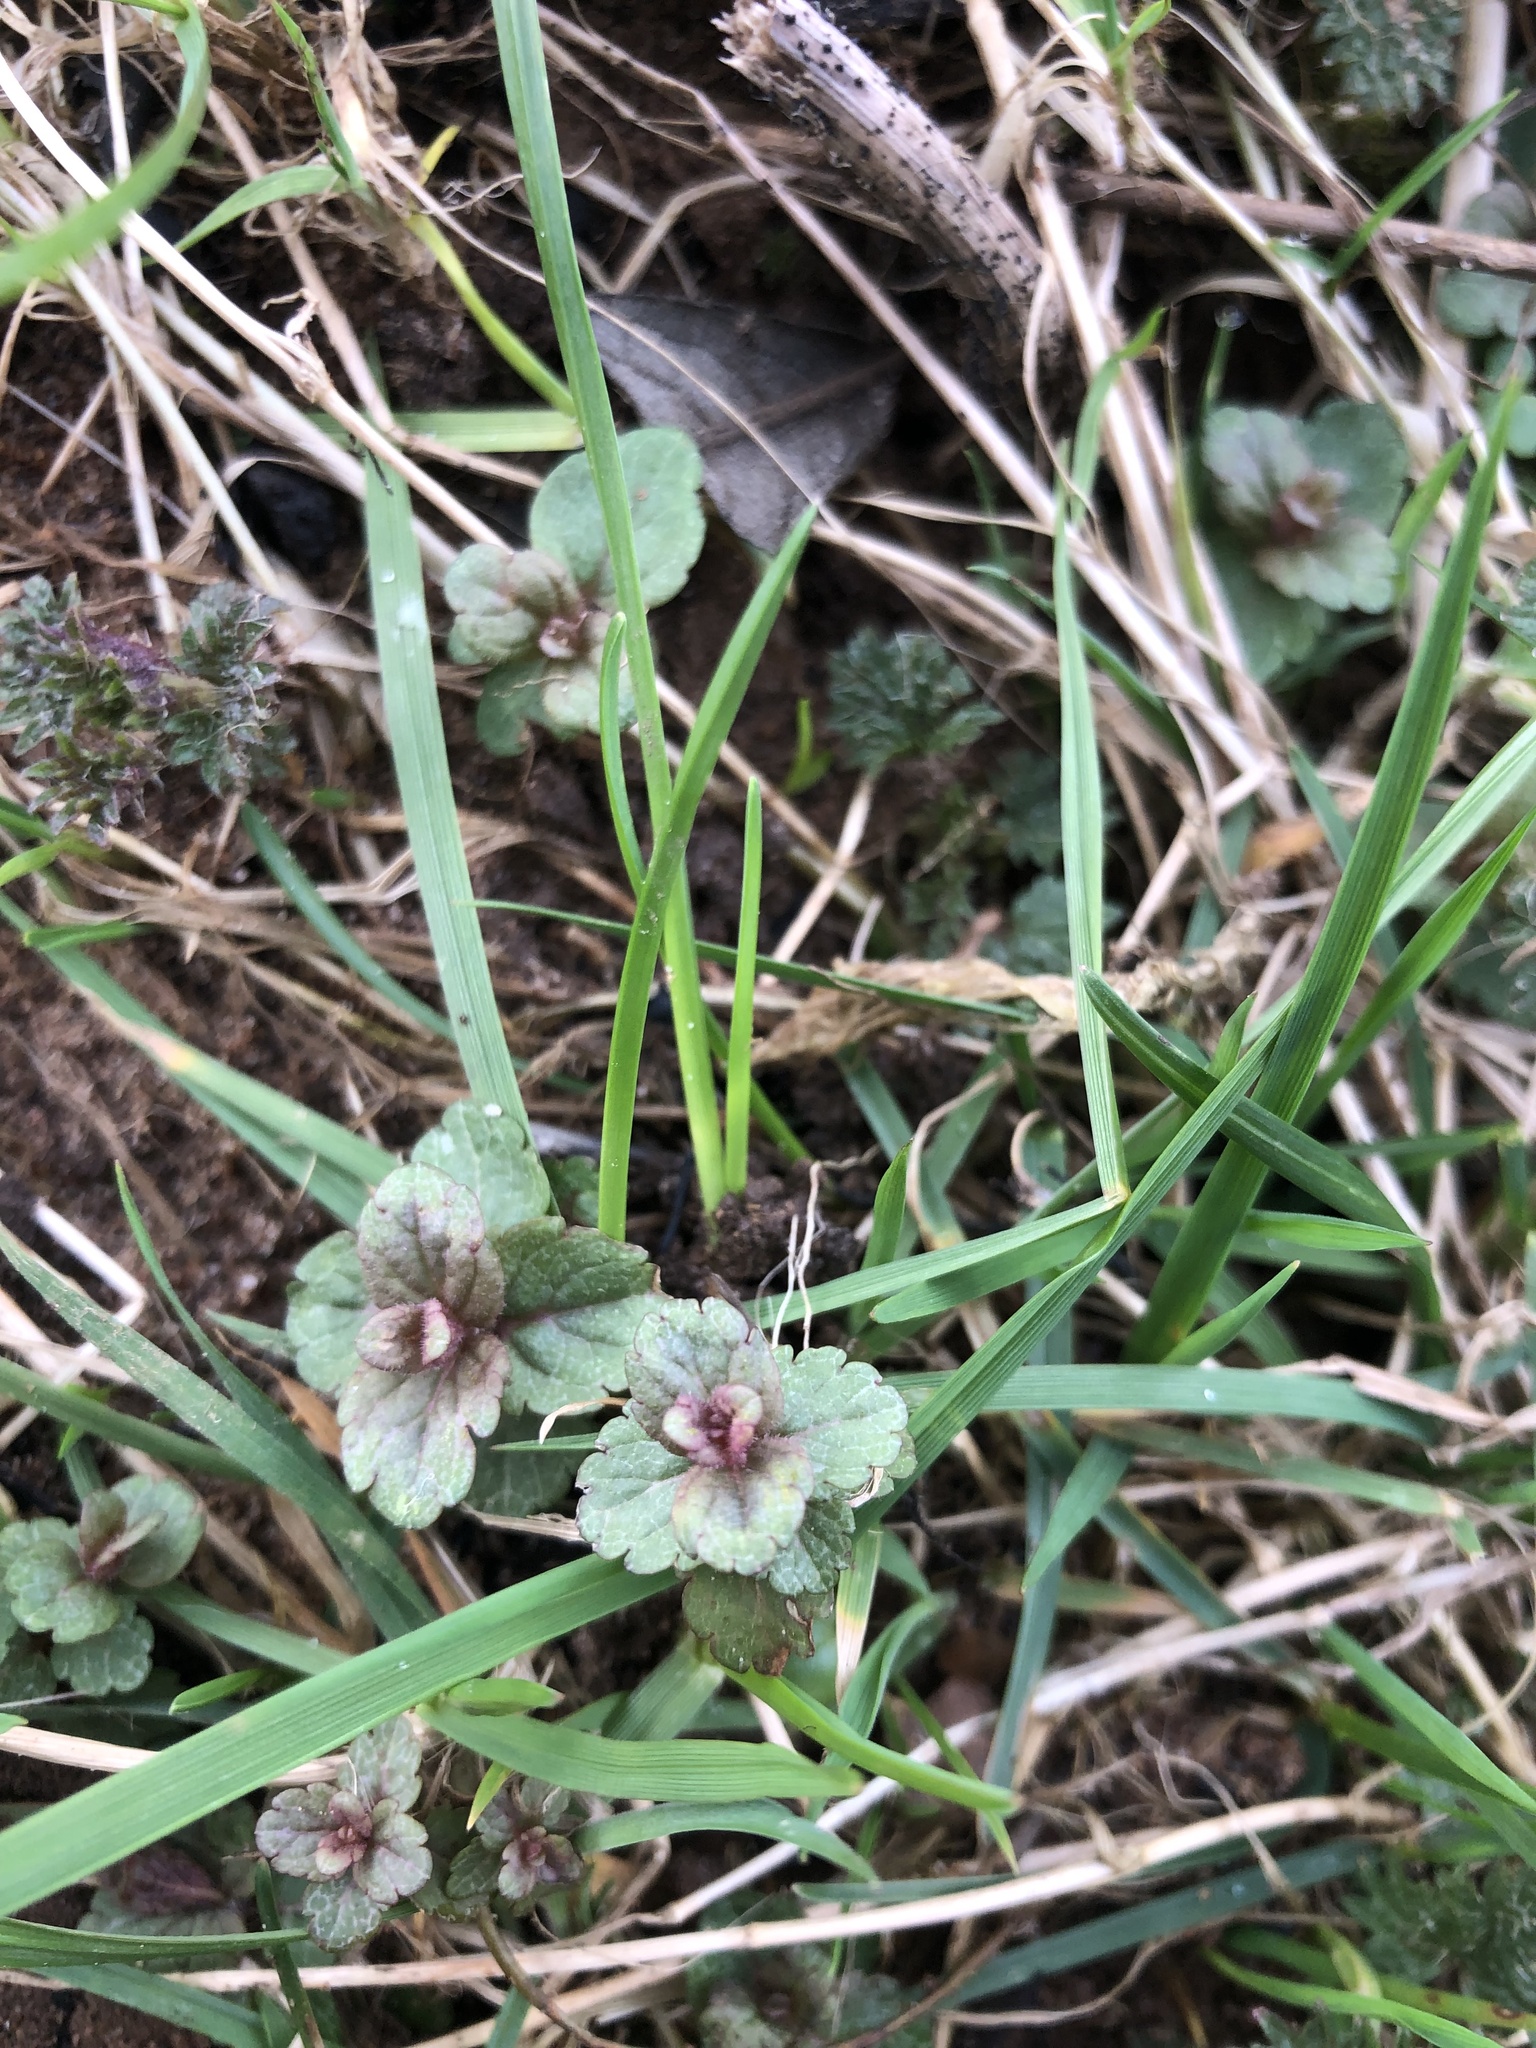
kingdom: Plantae
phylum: Tracheophyta
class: Magnoliopsida
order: Lamiales
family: Plantaginaceae
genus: Veronica
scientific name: Veronica chamaedrys
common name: Germander speedwell
